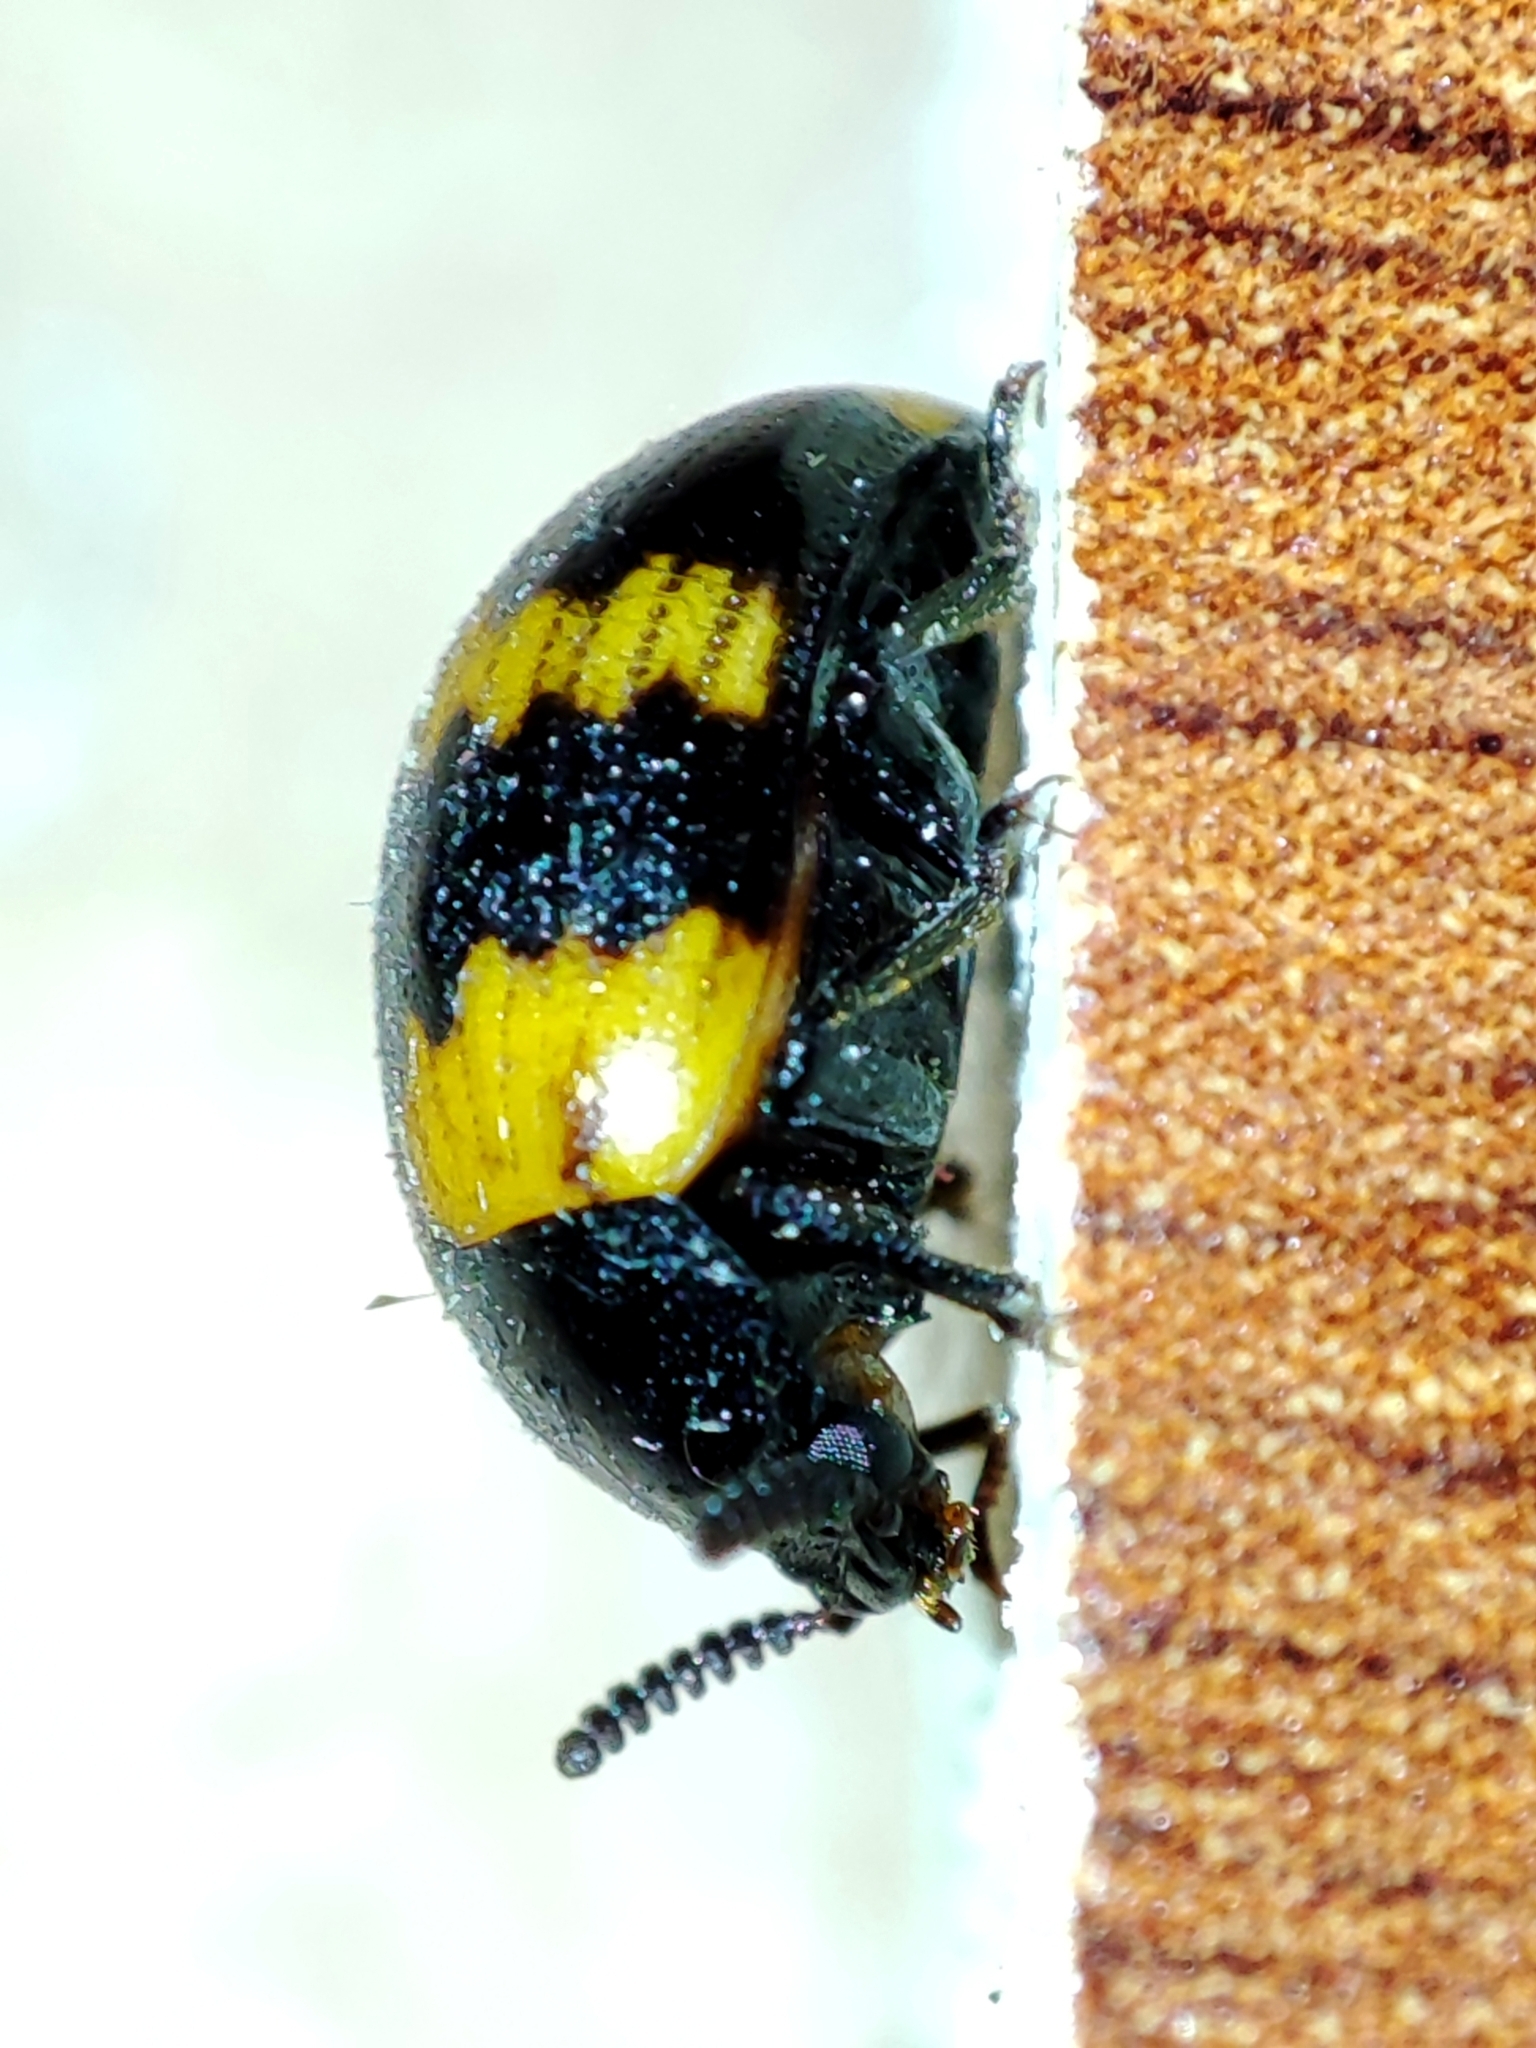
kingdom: Animalia
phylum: Arthropoda
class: Insecta
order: Coleoptera
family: Tenebrionidae
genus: Diaperis
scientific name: Diaperis boleti
